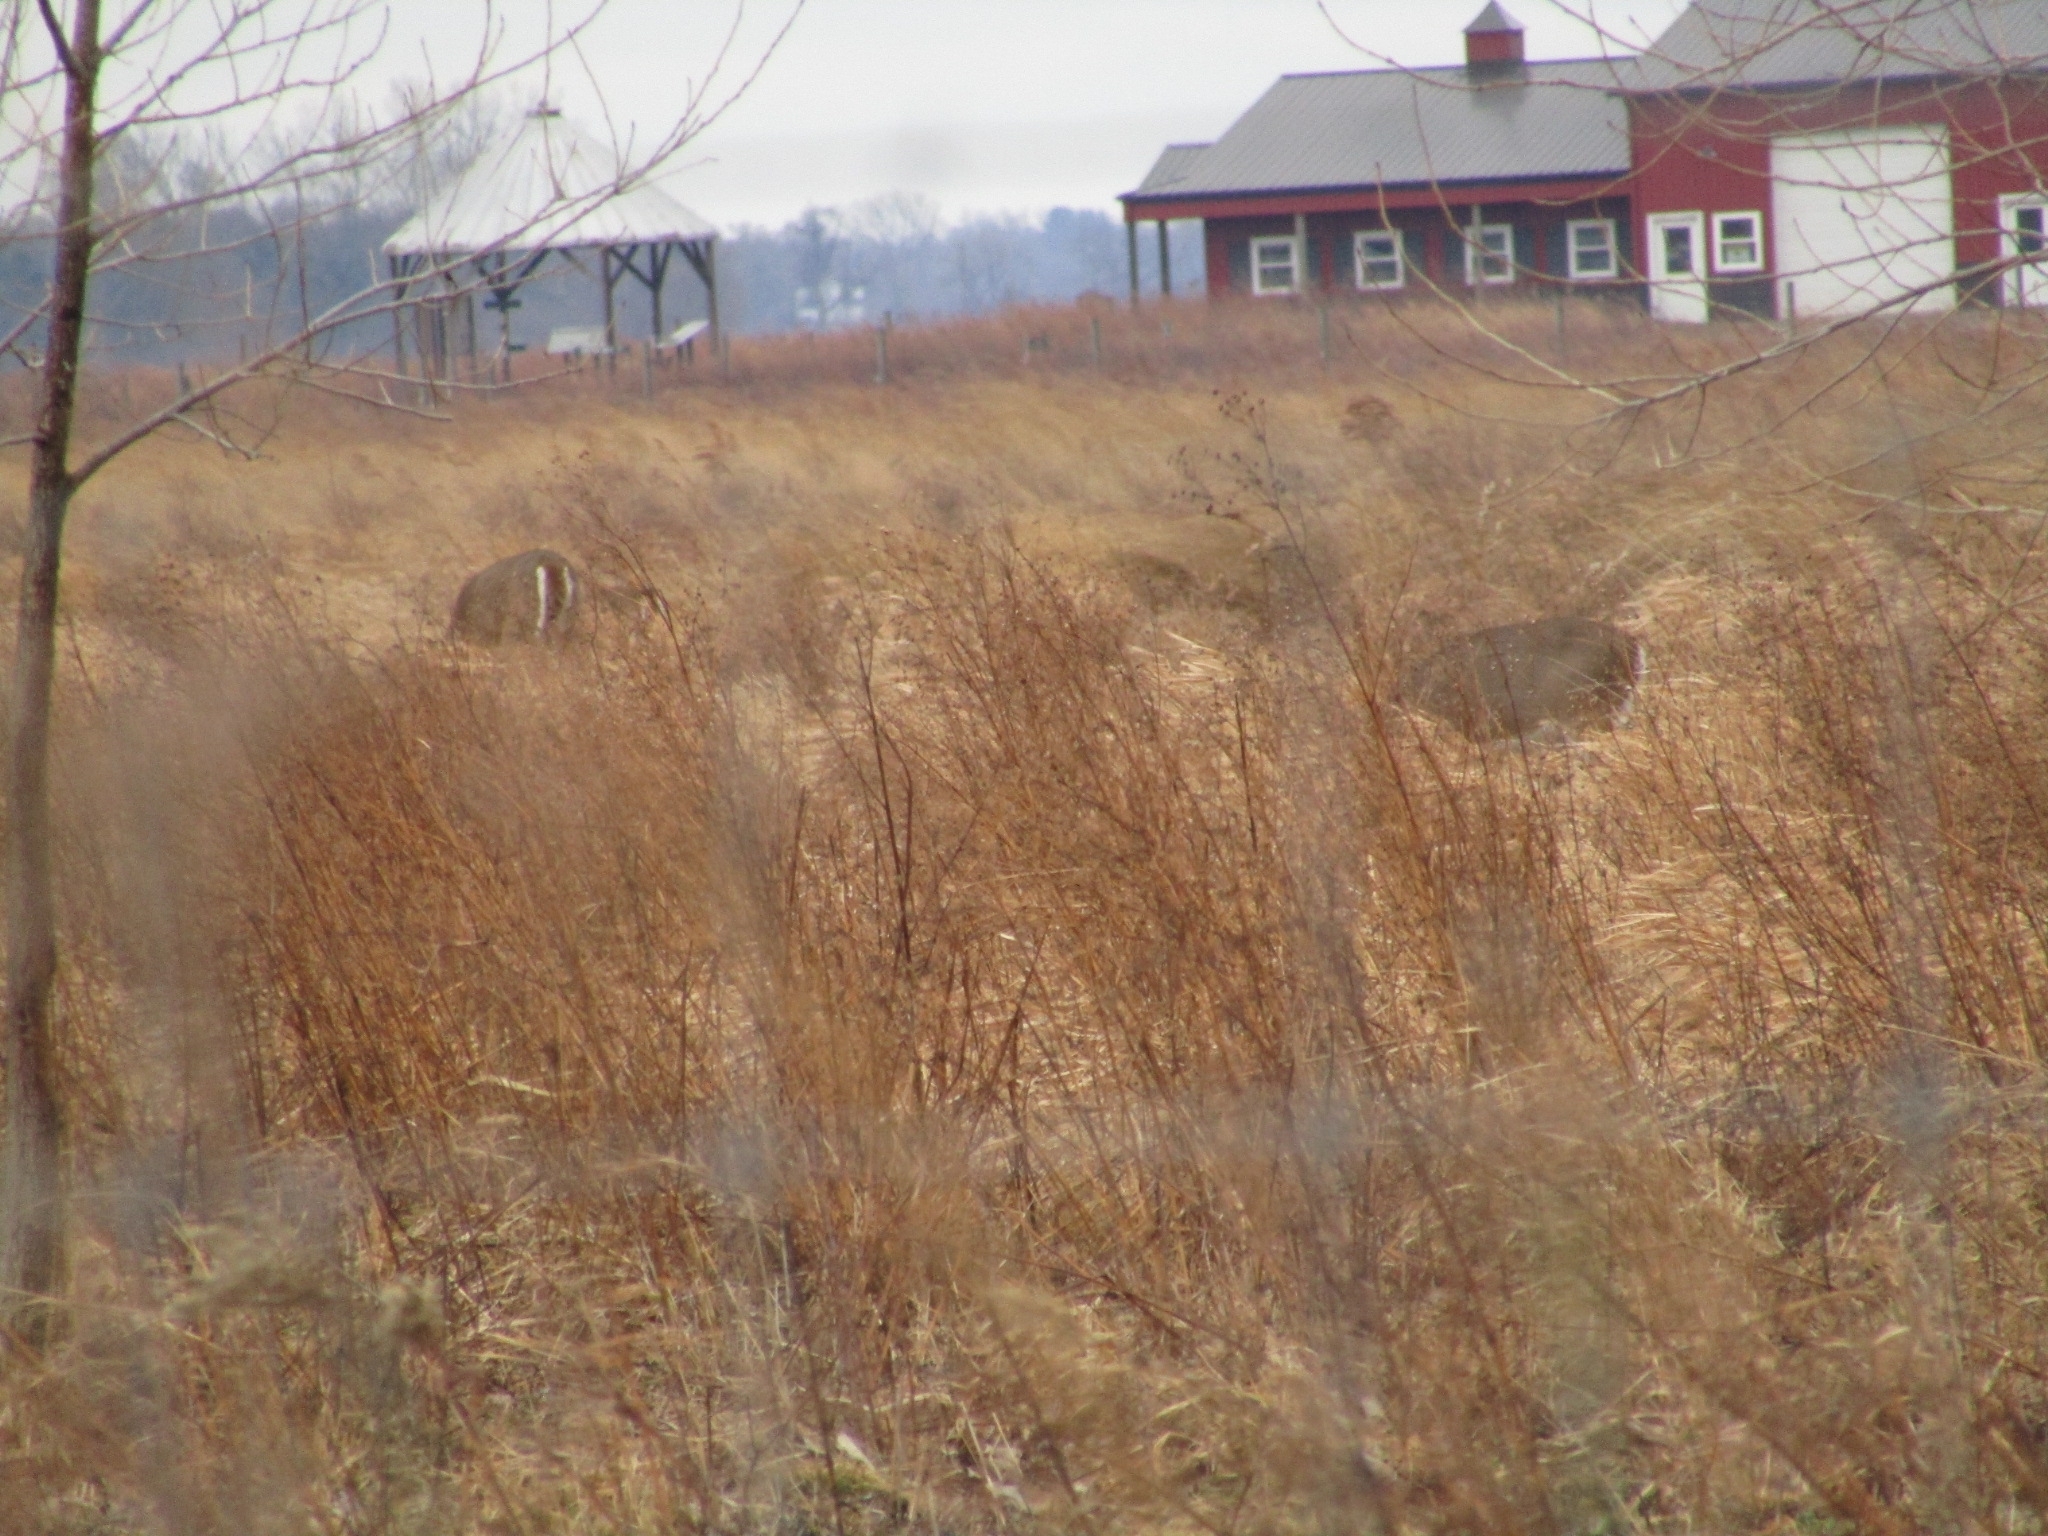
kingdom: Animalia
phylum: Chordata
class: Mammalia
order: Artiodactyla
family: Cervidae
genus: Odocoileus
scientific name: Odocoileus virginianus
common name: White-tailed deer
